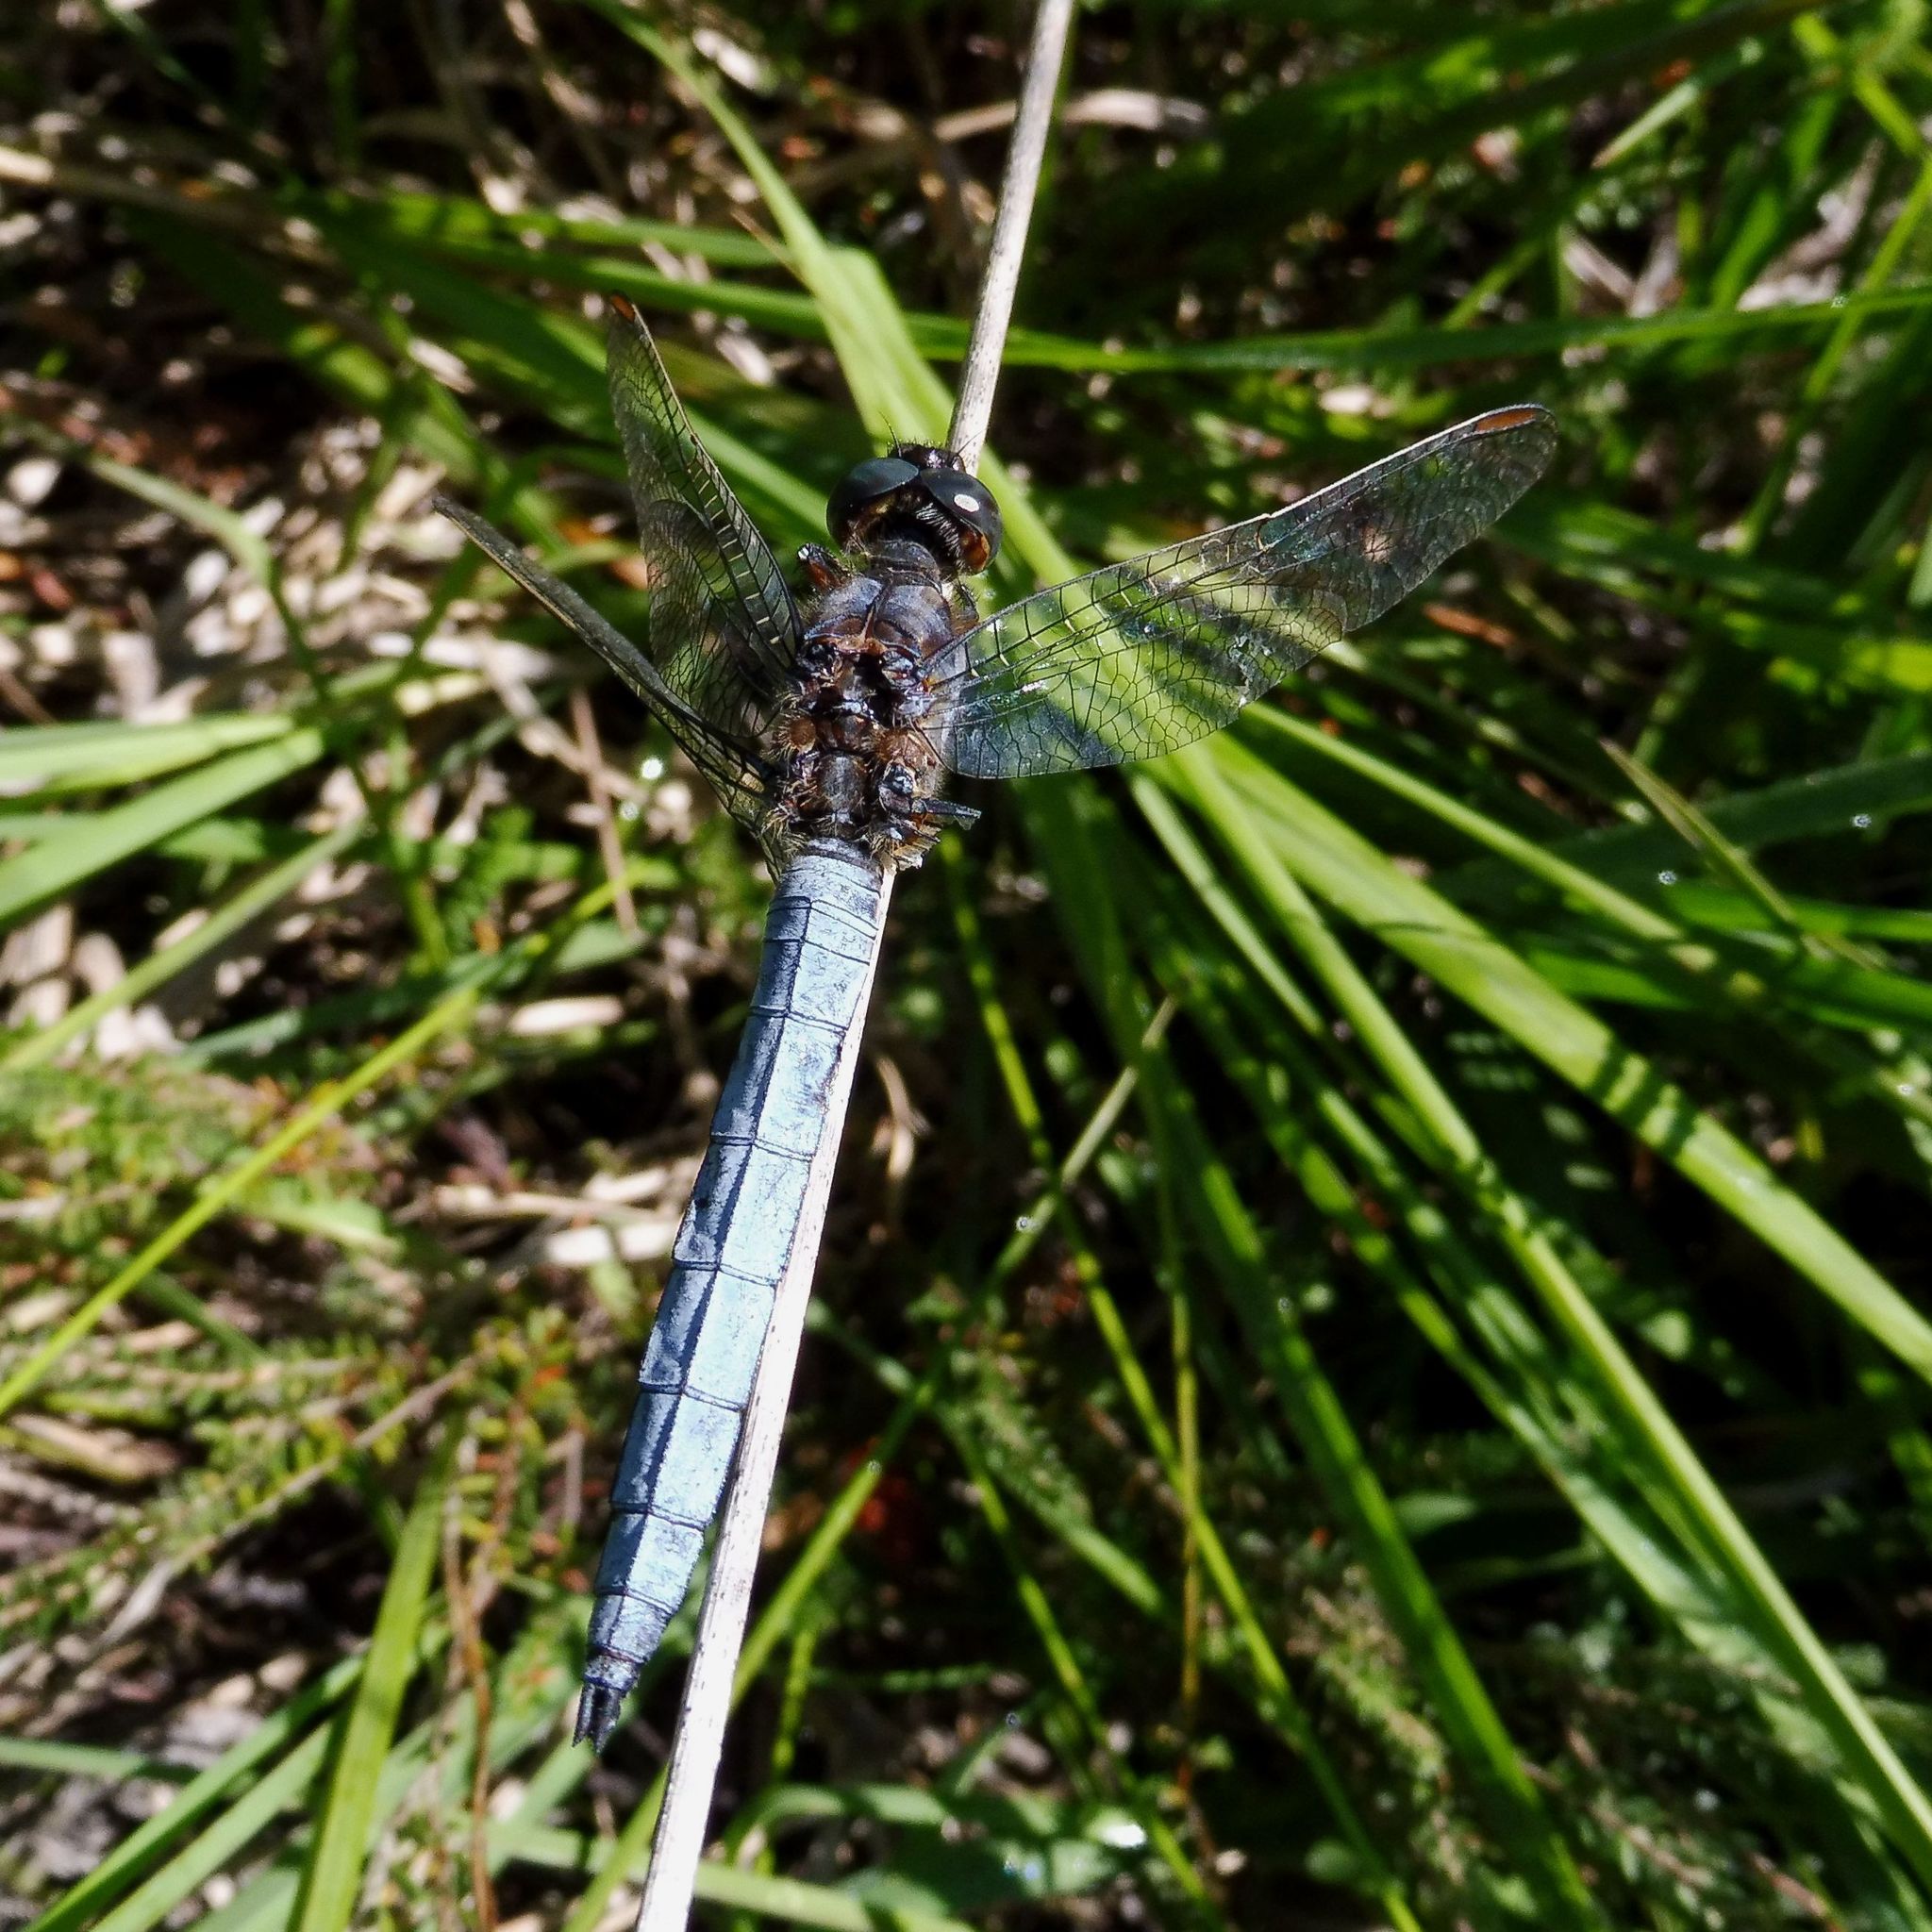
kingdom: Animalia
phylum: Arthropoda
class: Insecta
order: Odonata
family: Libellulidae
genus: Orthetrum
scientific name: Orthetrum coerulescens
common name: Keeled skimmer
